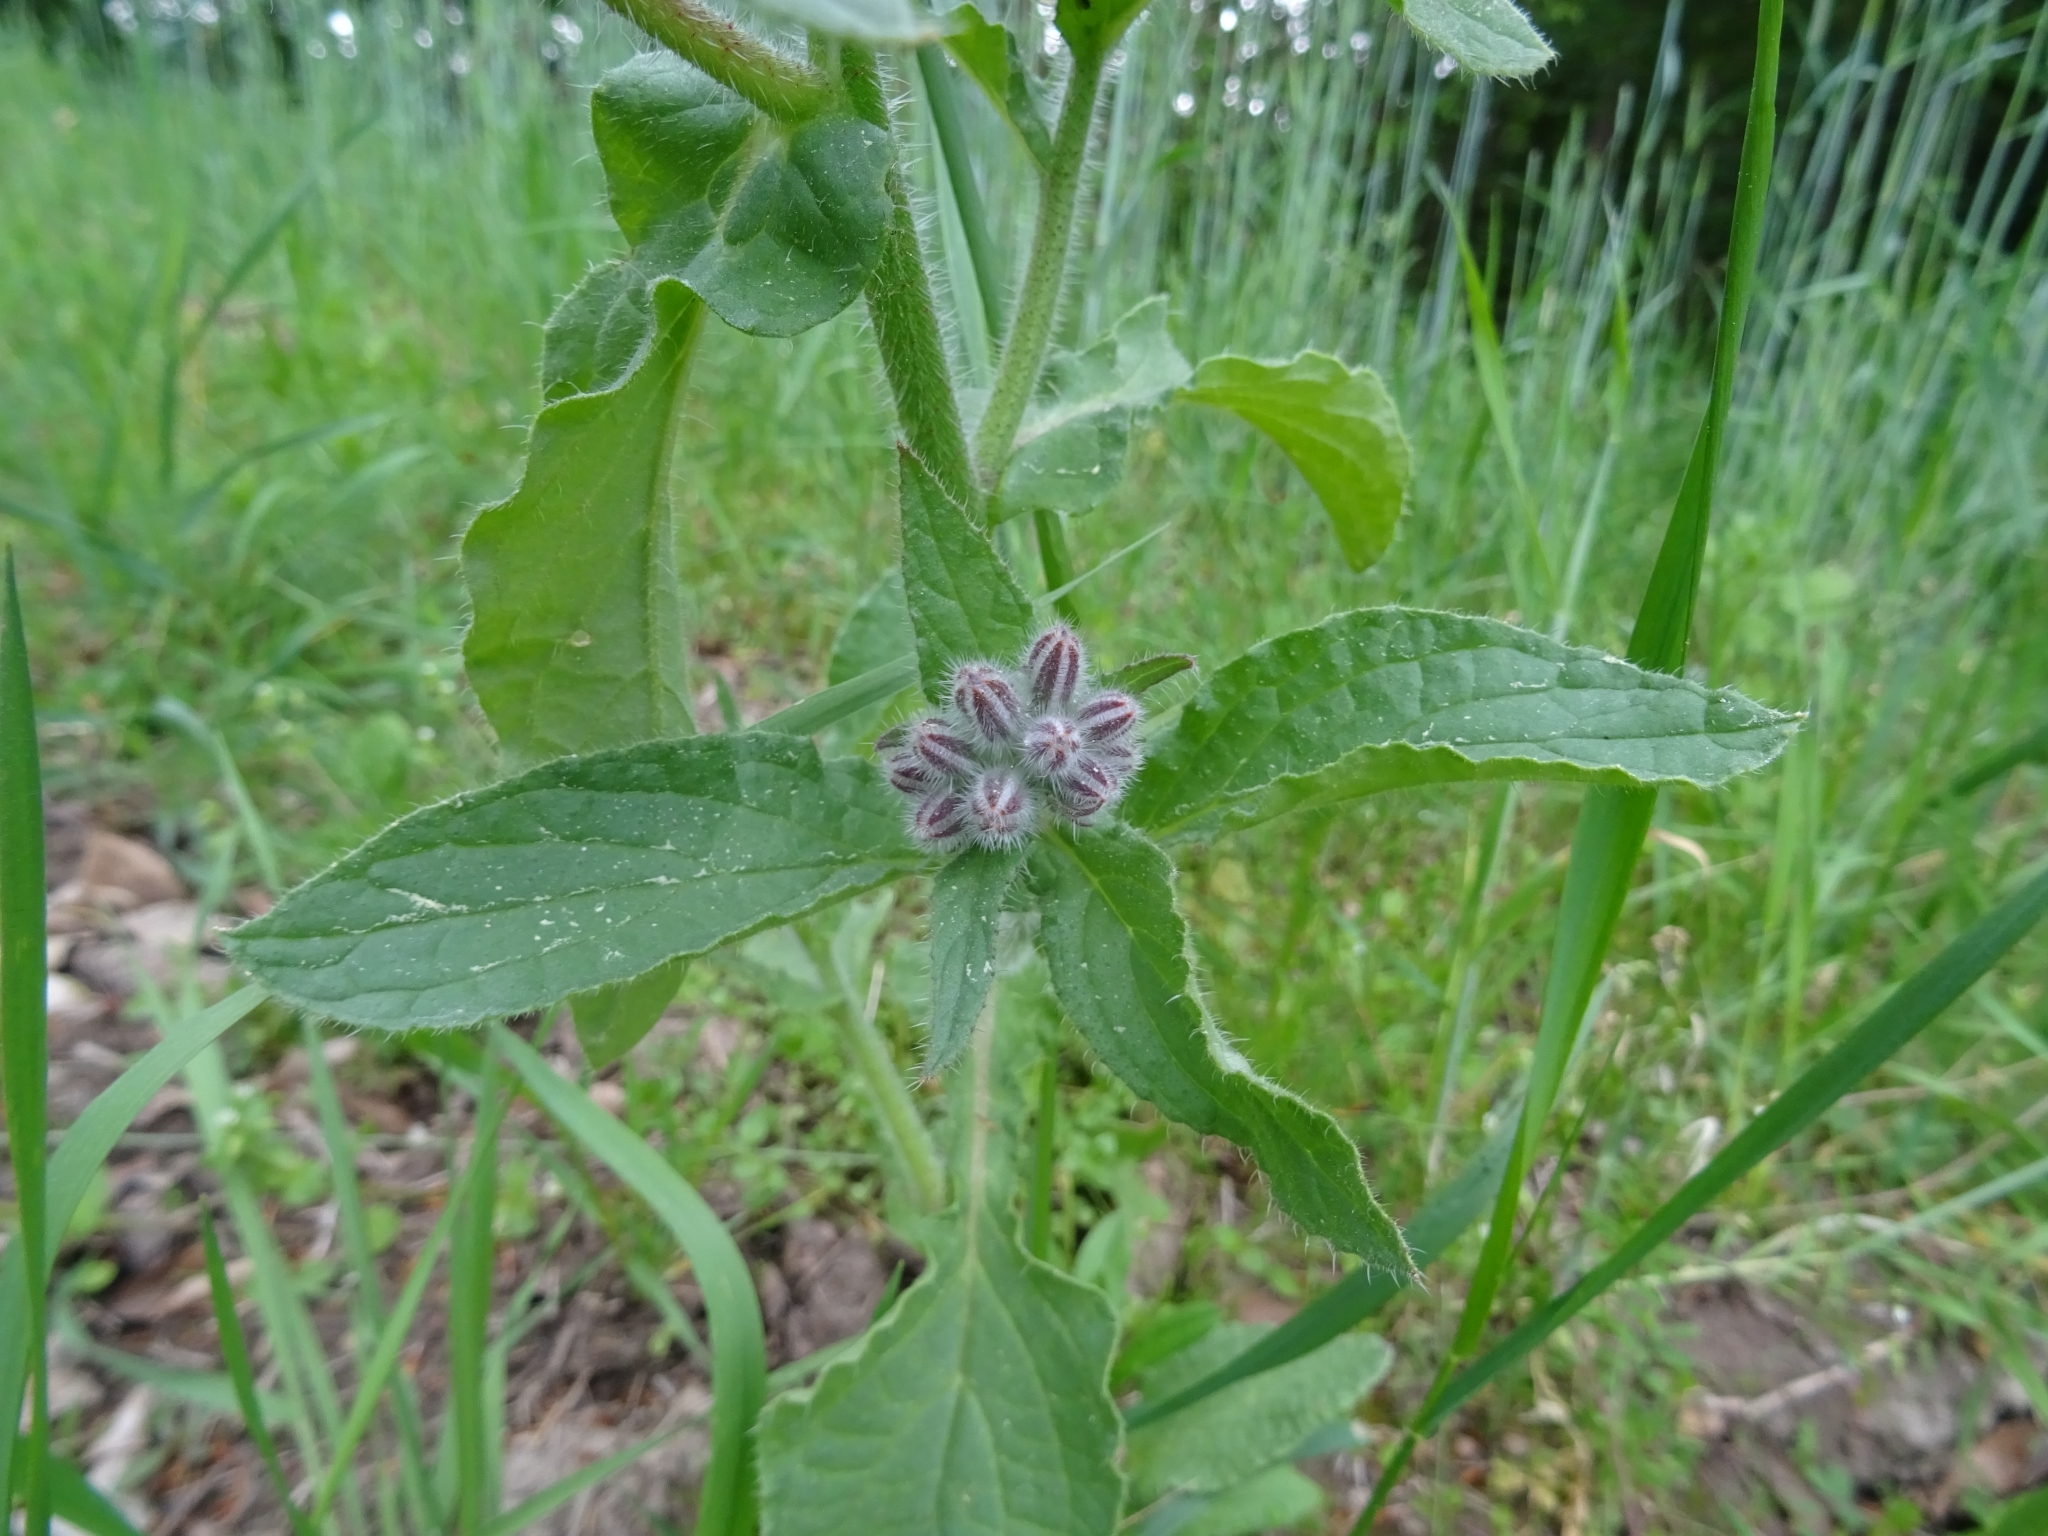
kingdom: Plantae
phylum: Tracheophyta
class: Magnoliopsida
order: Boraginales
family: Boraginaceae
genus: Borago
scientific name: Borago officinalis
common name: Borage
